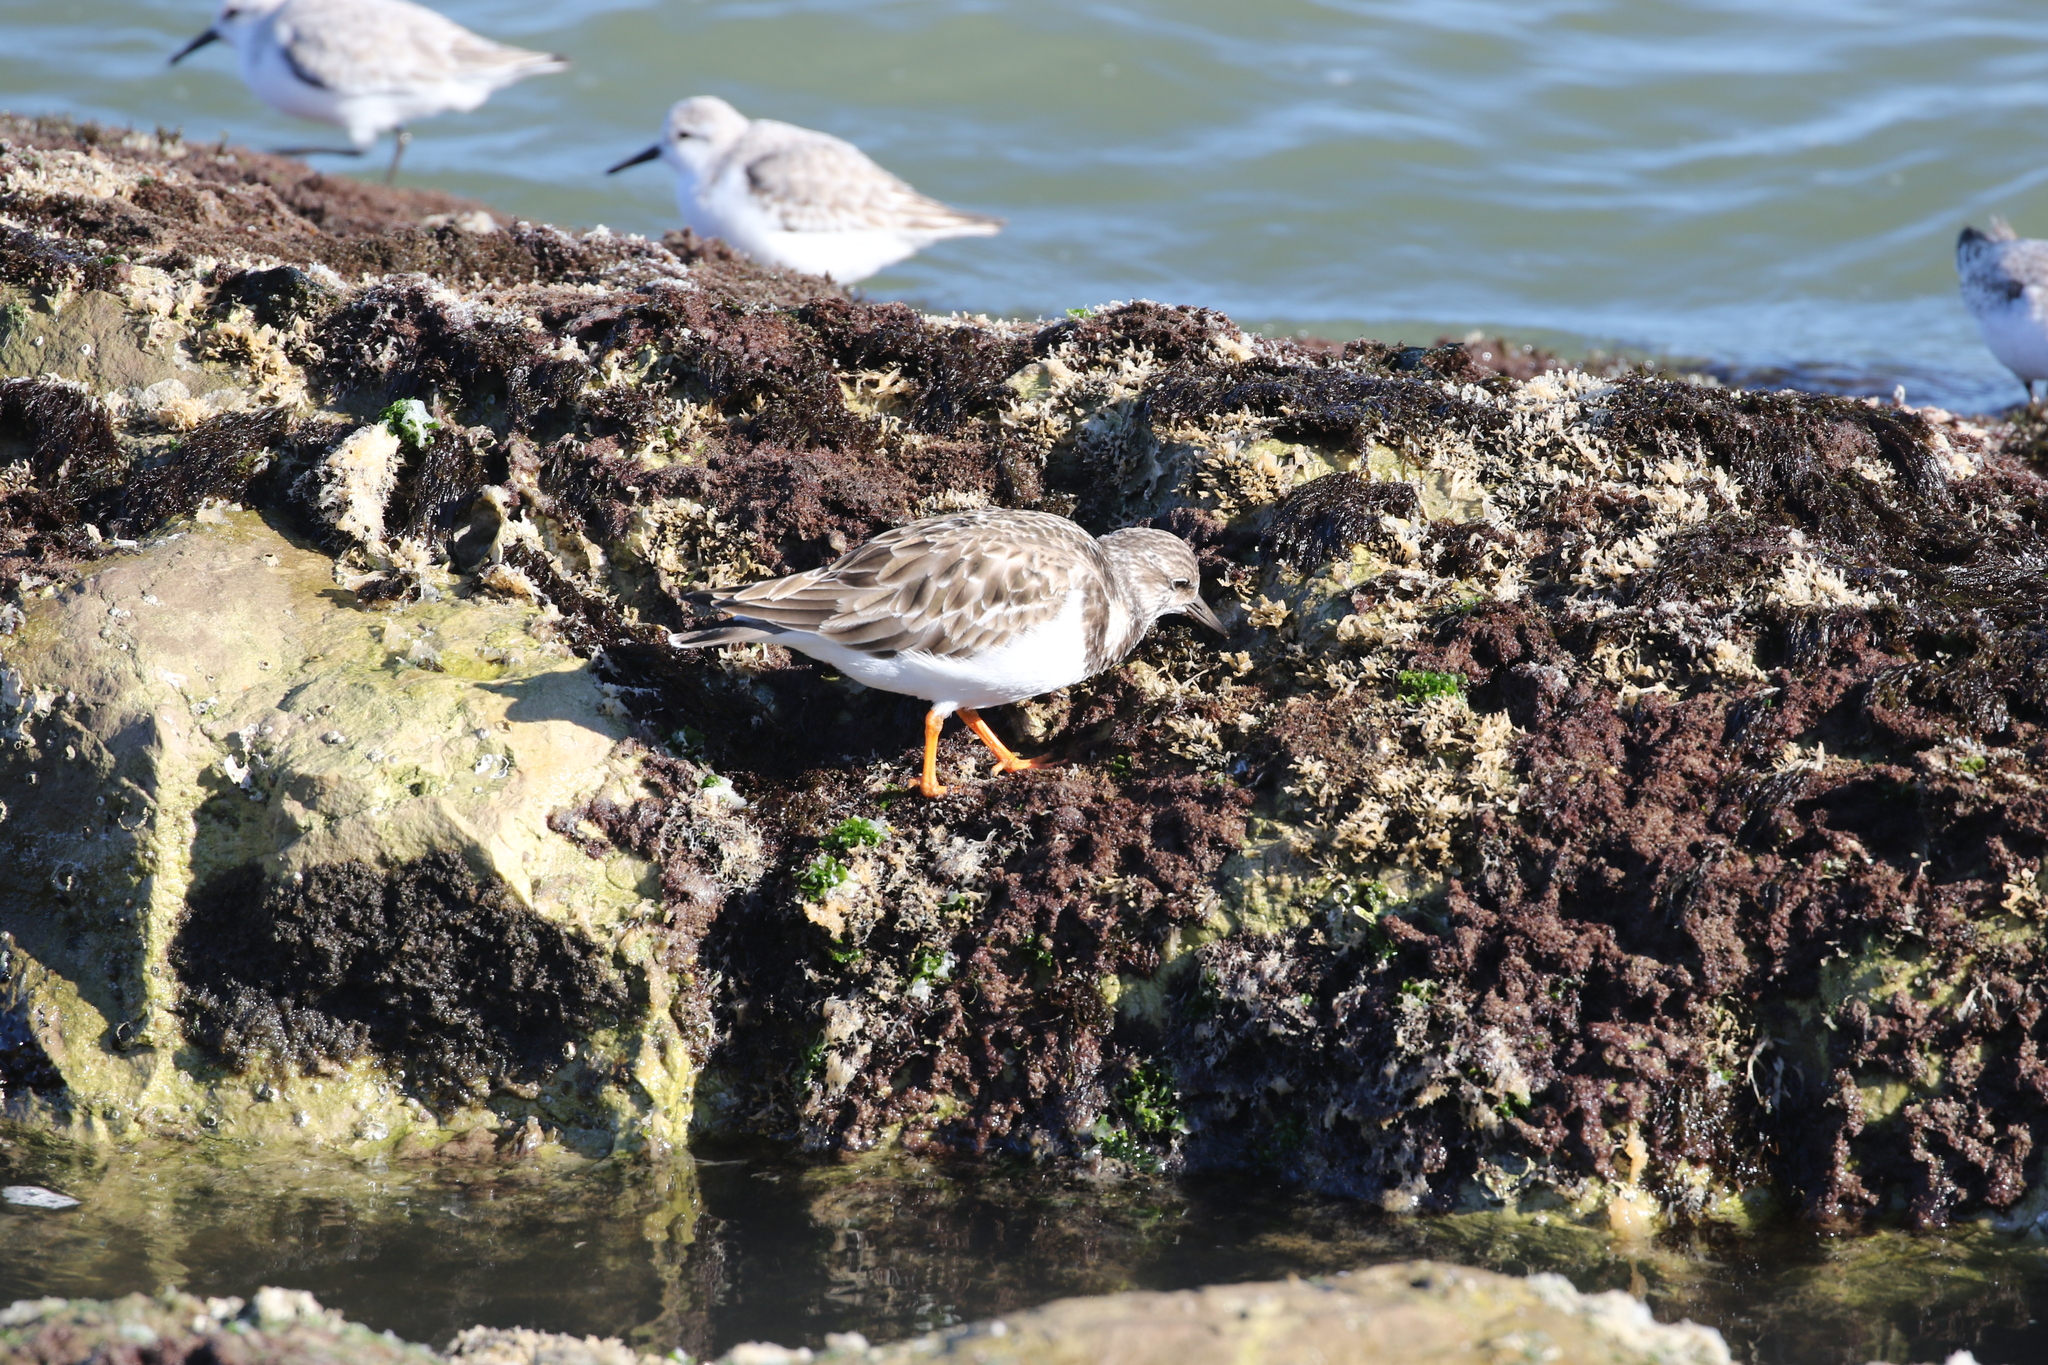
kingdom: Animalia
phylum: Chordata
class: Aves
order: Charadriiformes
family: Scolopacidae
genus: Calidris
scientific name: Calidris alba
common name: Sanderling
